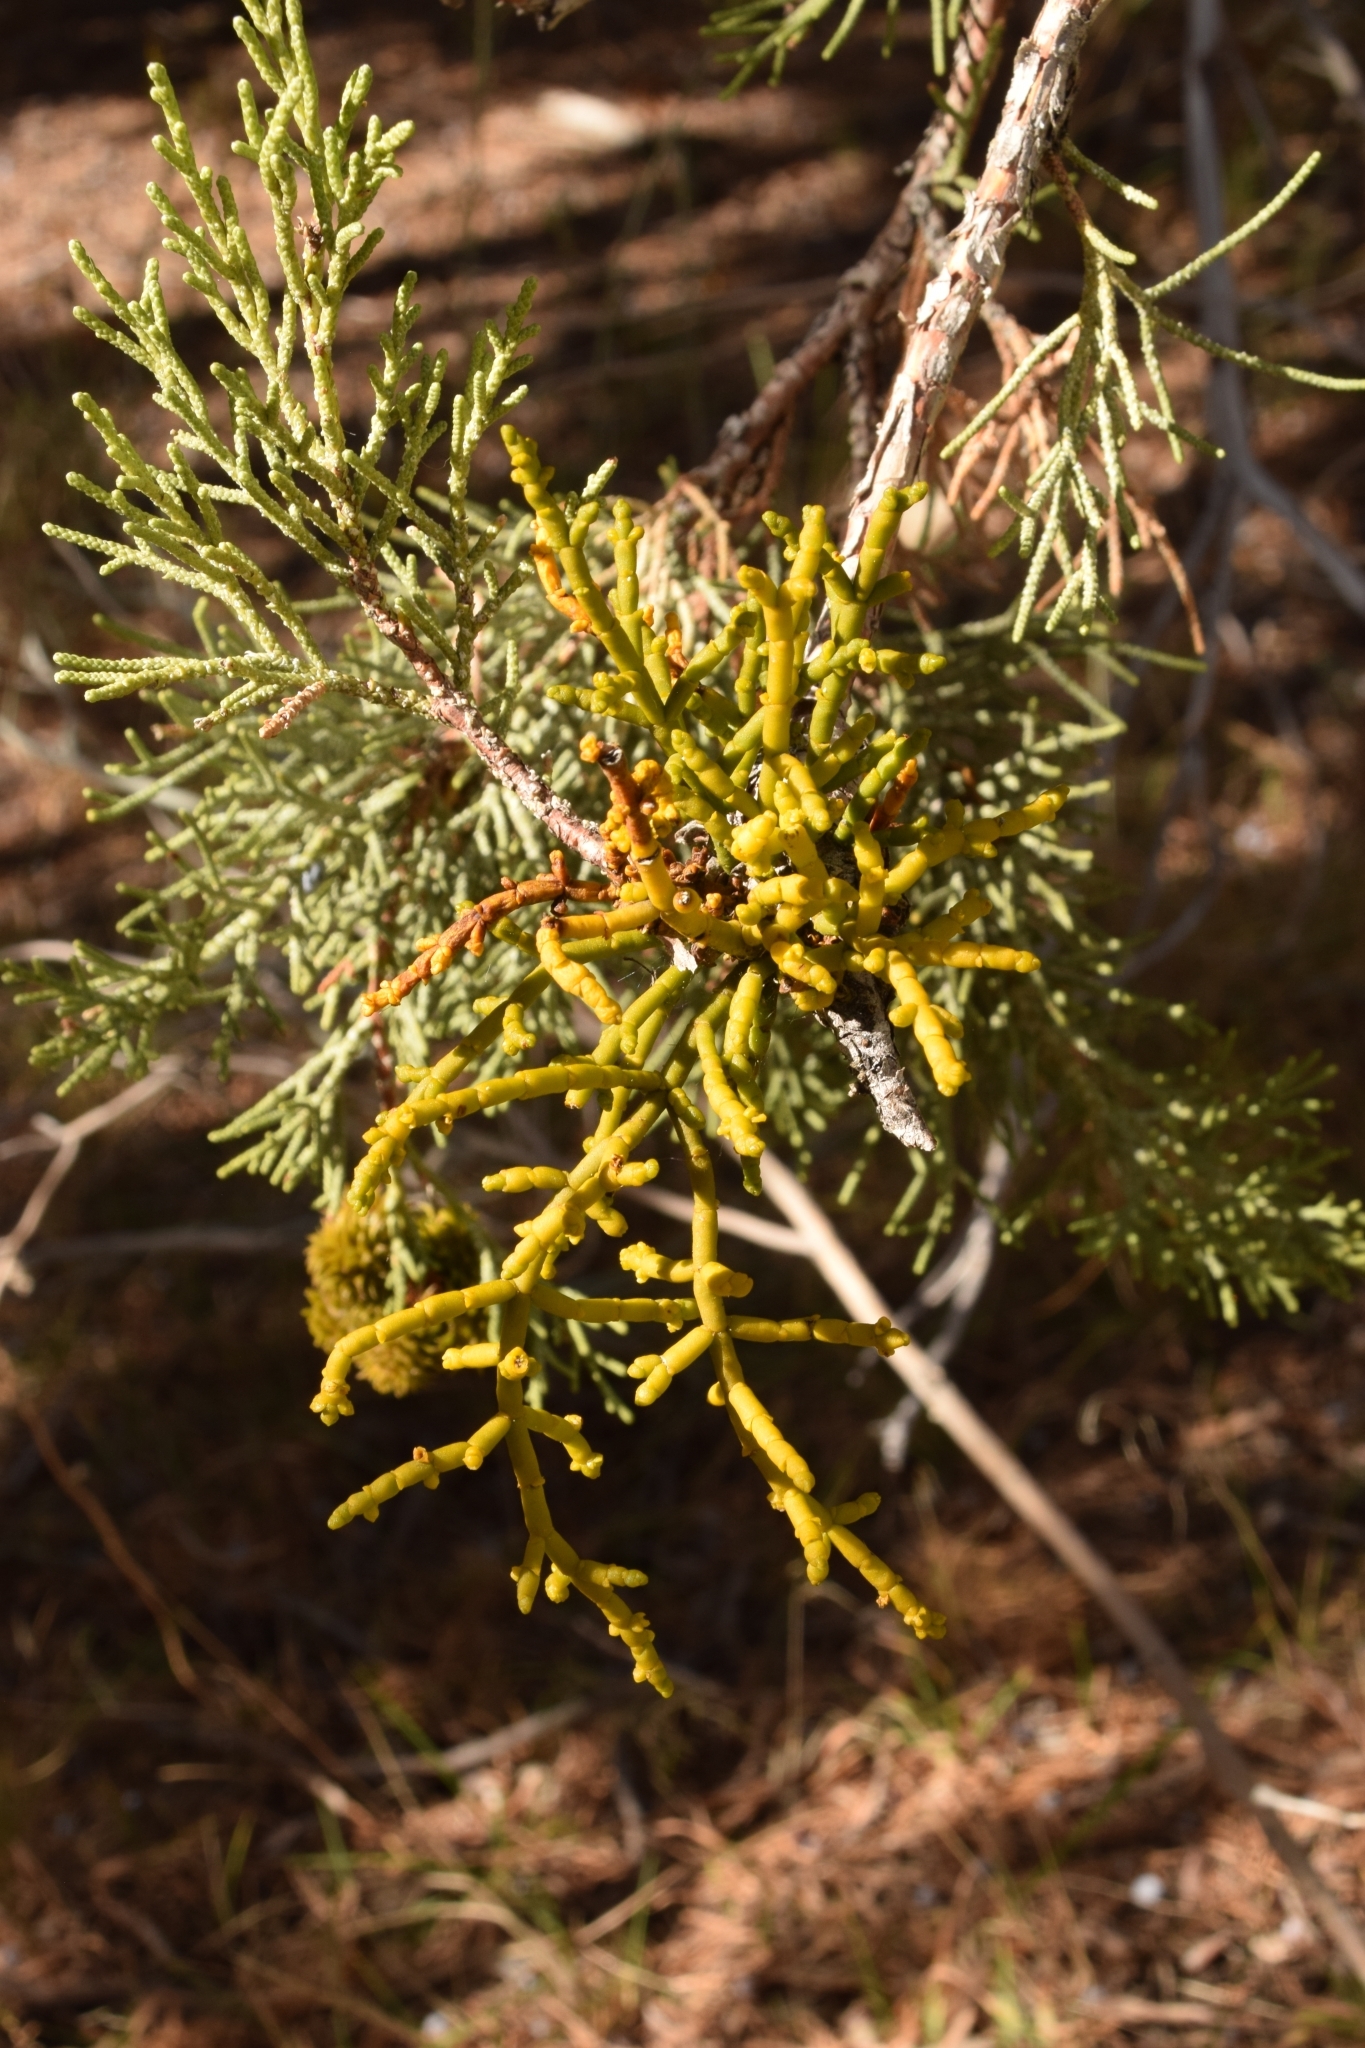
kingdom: Plantae
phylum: Tracheophyta
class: Magnoliopsida
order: Santalales
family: Viscaceae
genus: Phoradendron
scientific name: Phoradendron juniperinum
